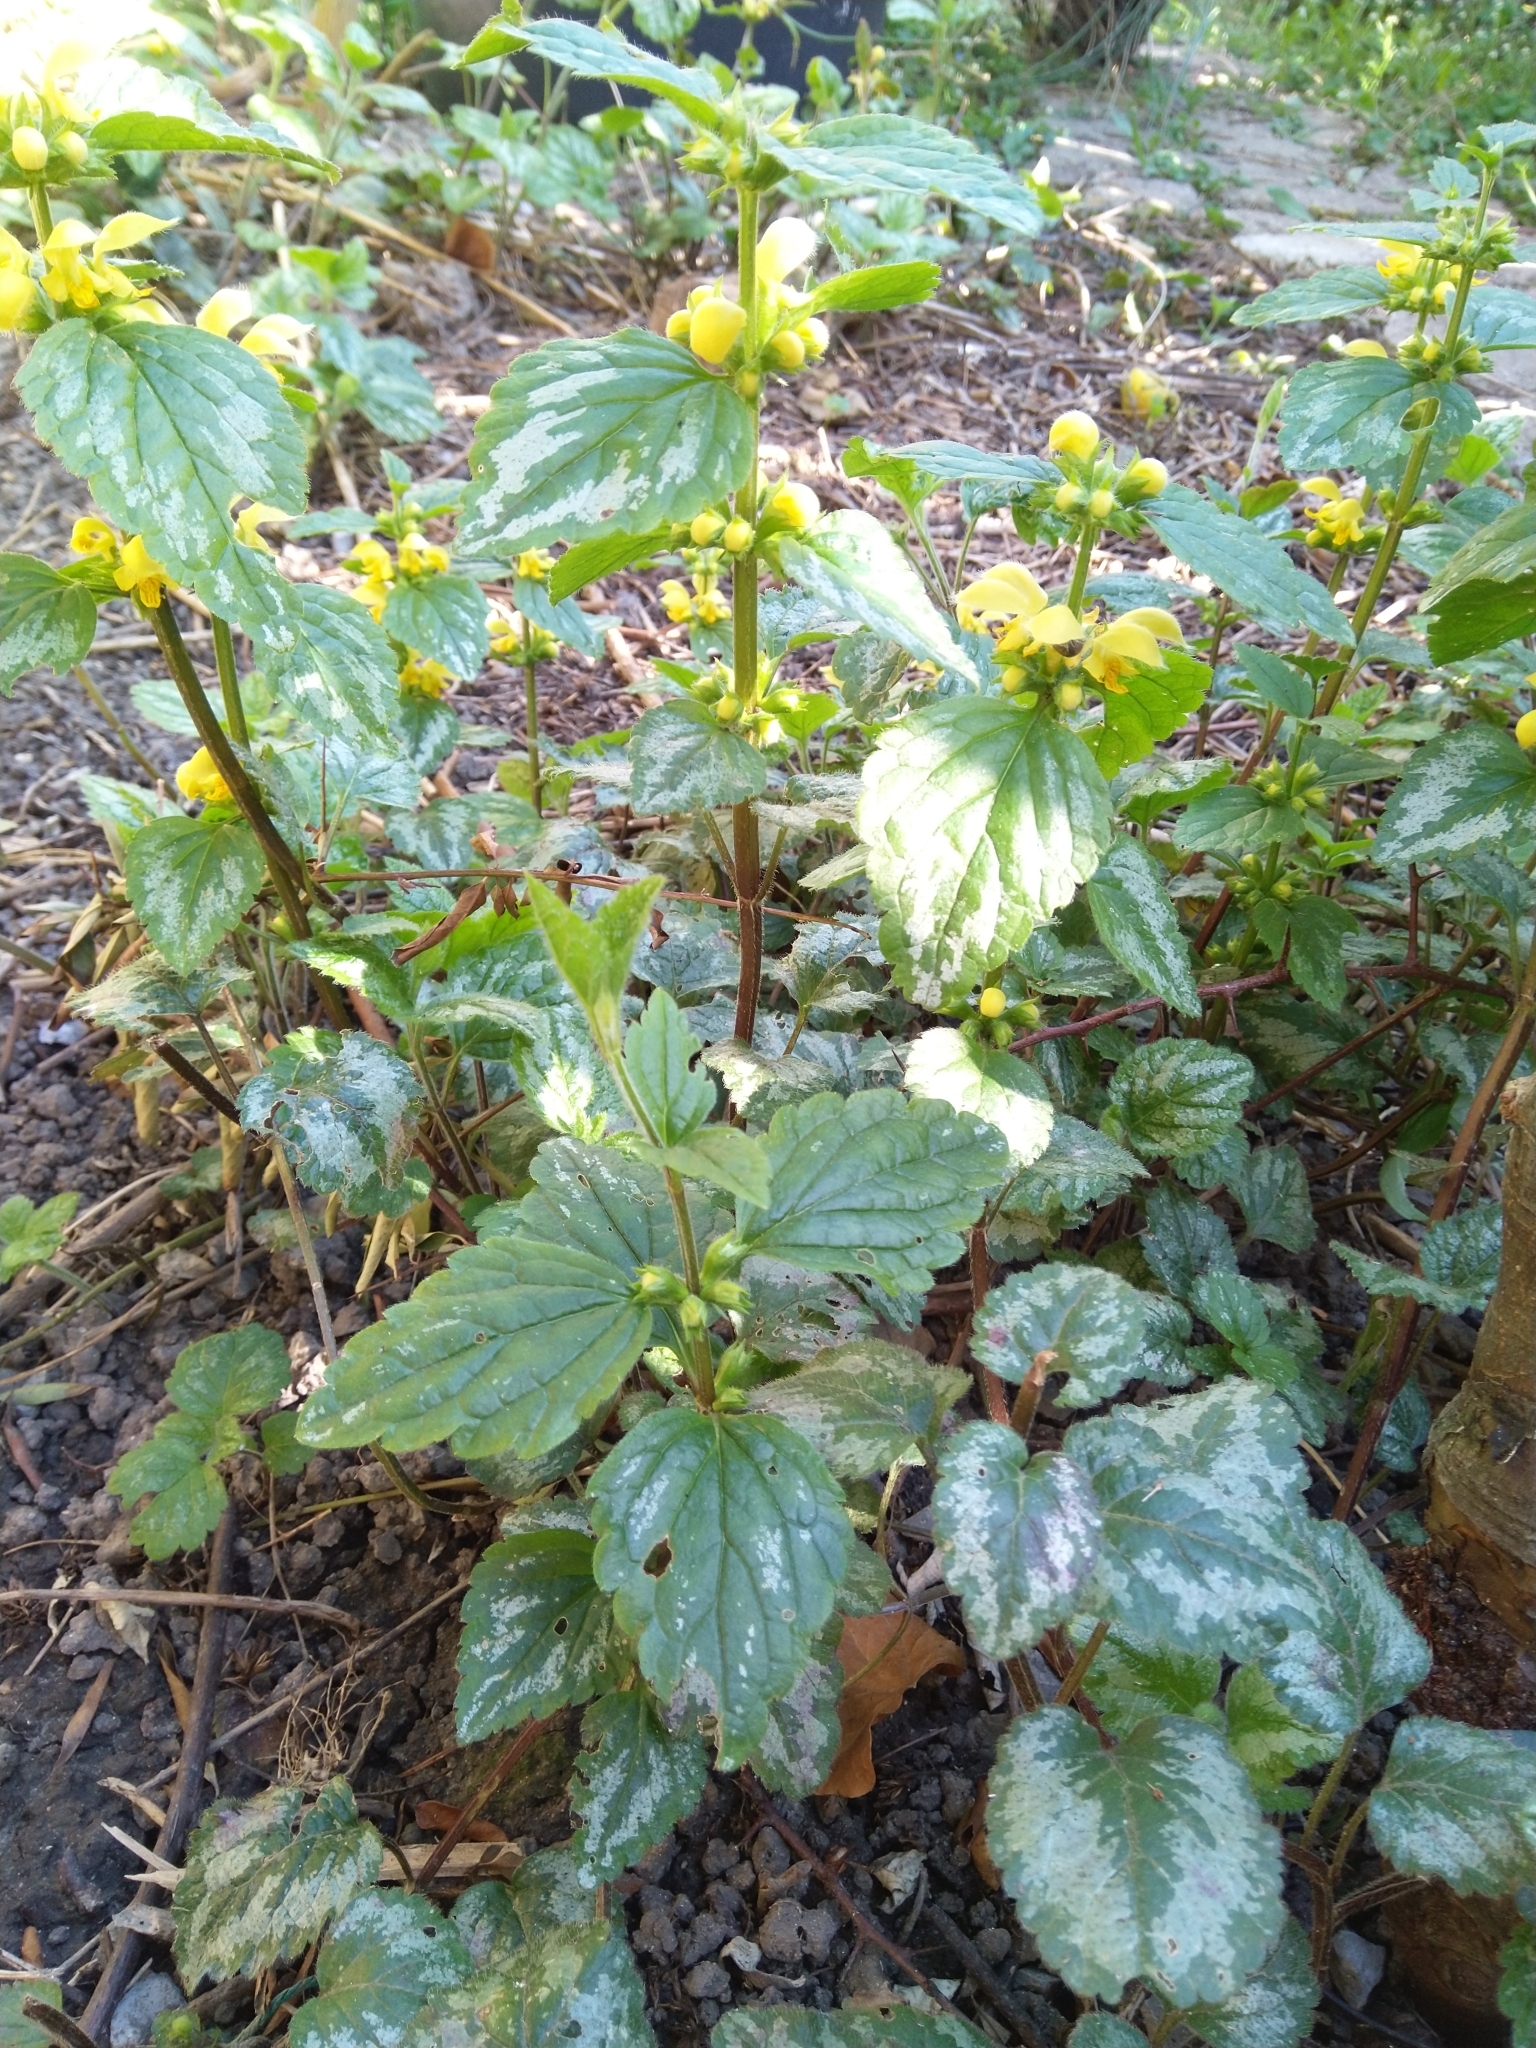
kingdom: Plantae
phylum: Tracheophyta
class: Magnoliopsida
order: Lamiales
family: Lamiaceae
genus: Lamium
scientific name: Lamium galeobdolon
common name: Yellow archangel
